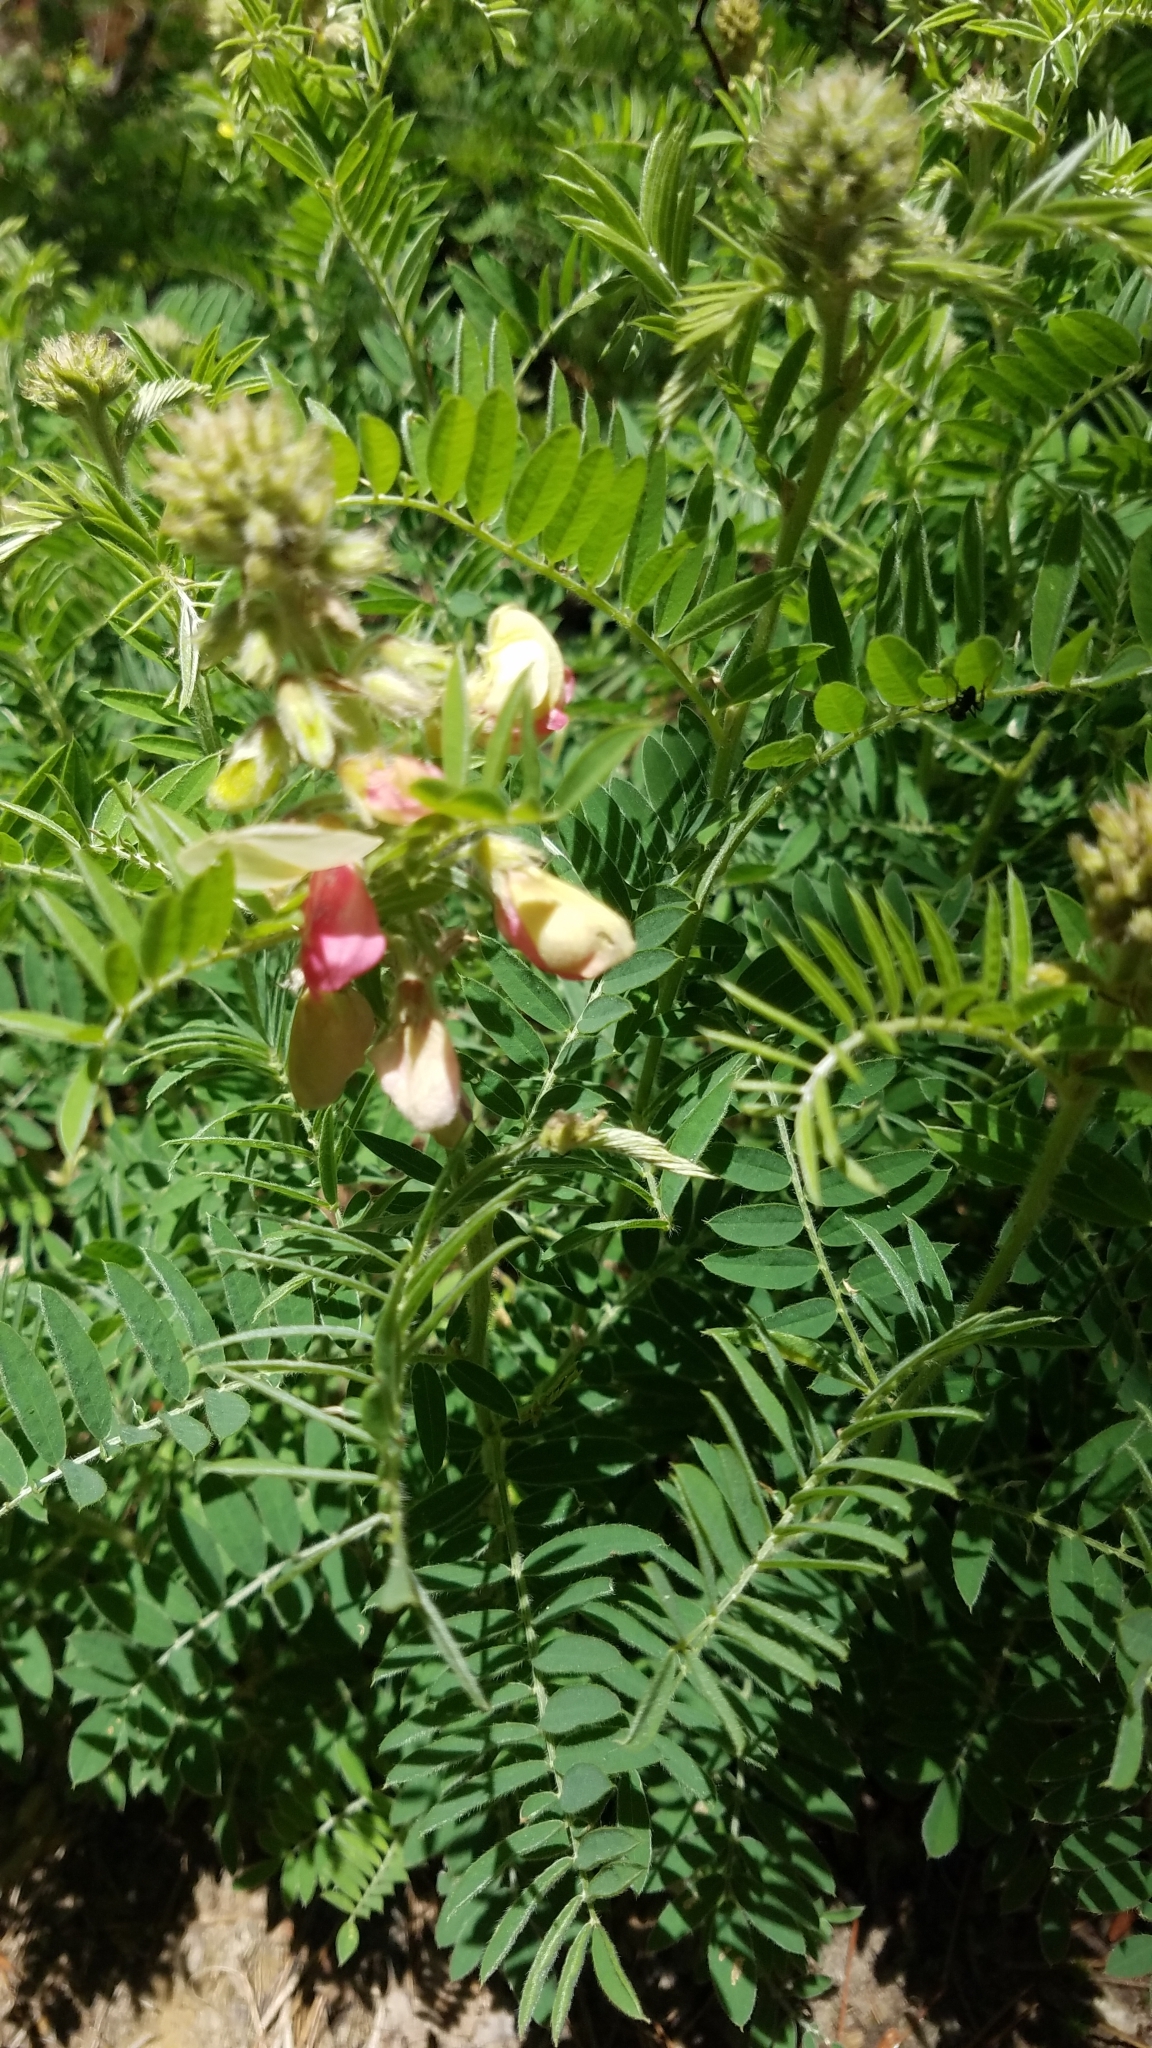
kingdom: Plantae
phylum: Tracheophyta
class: Magnoliopsida
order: Fabales
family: Fabaceae
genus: Tephrosia
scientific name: Tephrosia virginiana
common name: Rabbit-pea
